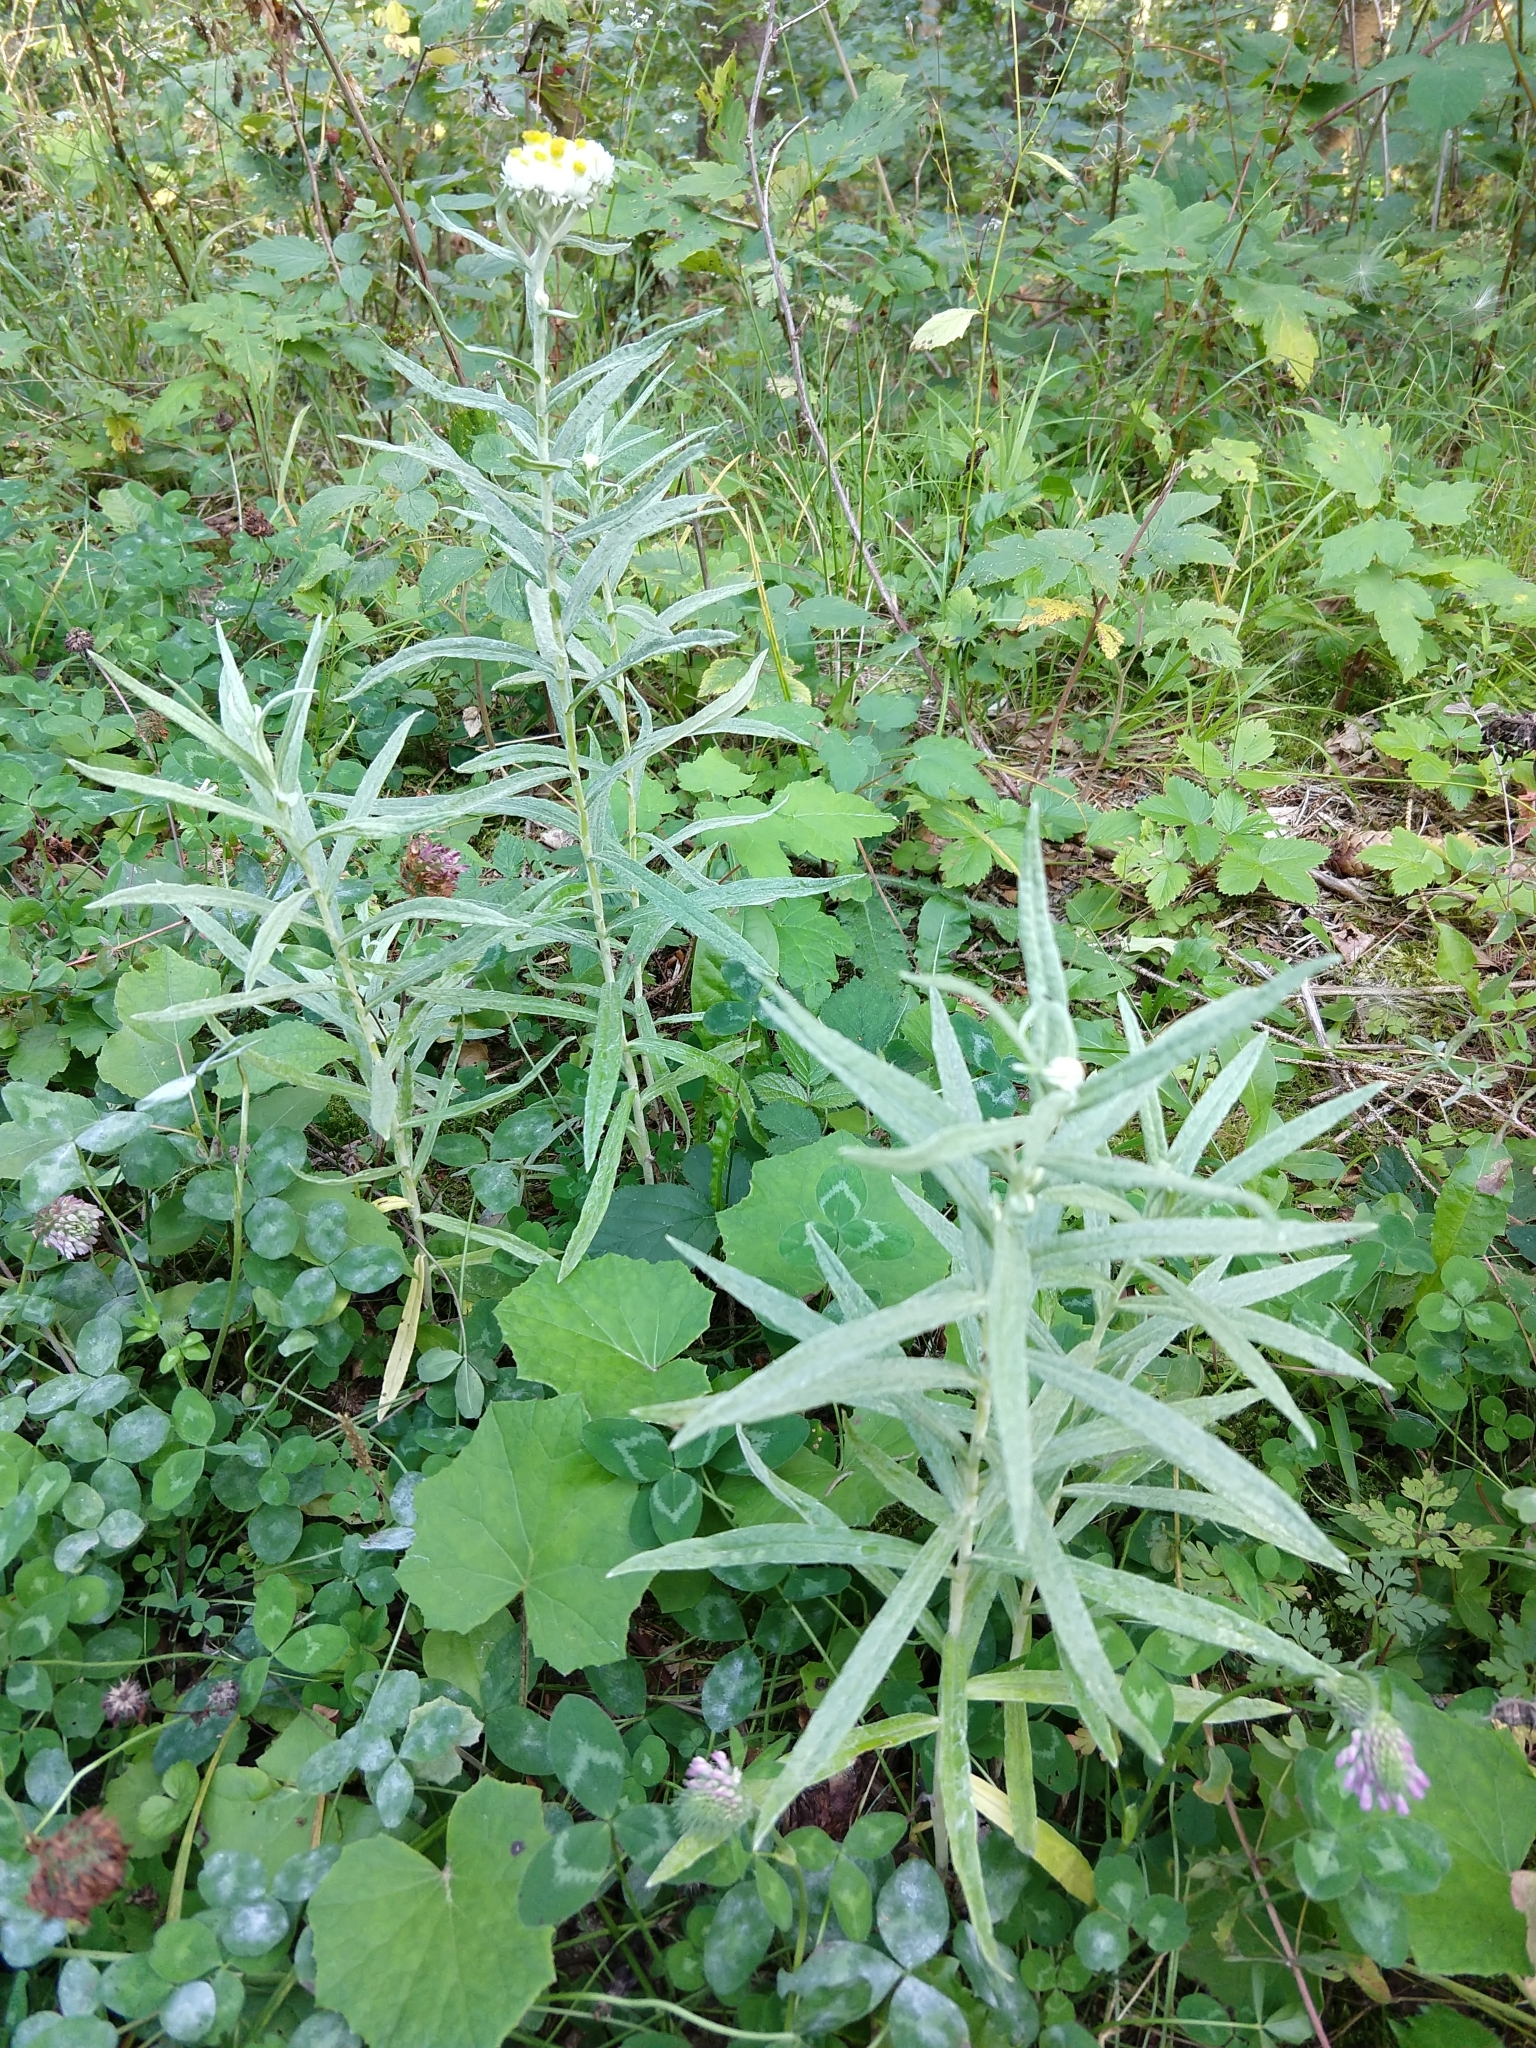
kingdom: Plantae
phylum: Tracheophyta
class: Magnoliopsida
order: Asterales
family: Asteraceae
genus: Anaphalis
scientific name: Anaphalis margaritacea
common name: Pearly everlasting
